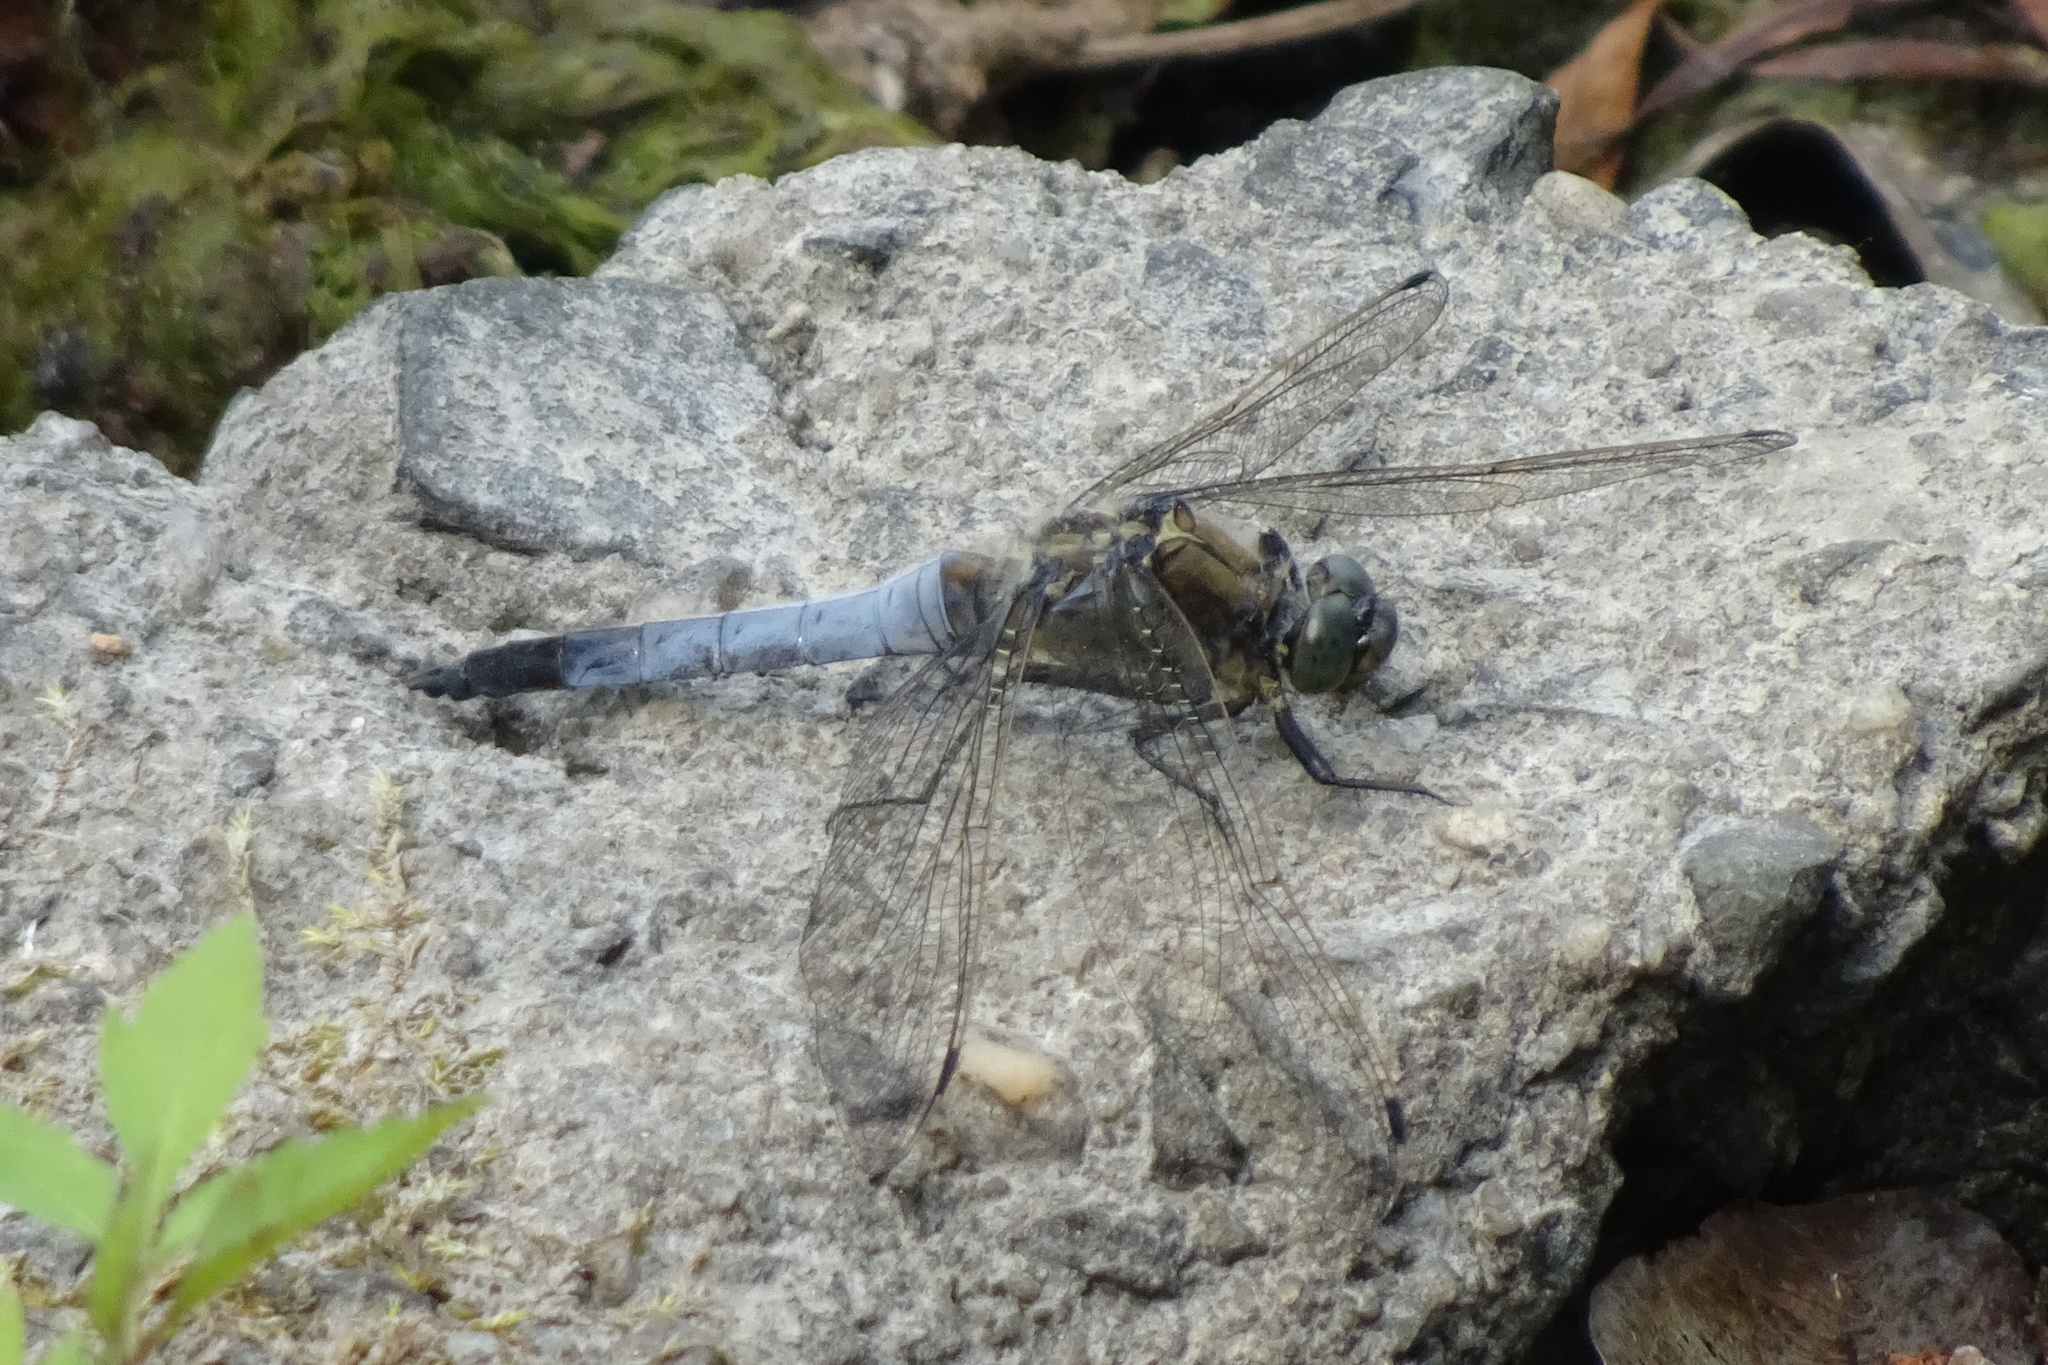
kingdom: Animalia
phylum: Arthropoda
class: Insecta
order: Odonata
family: Libellulidae
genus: Orthetrum
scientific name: Orthetrum cancellatum
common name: Black-tailed skimmer
